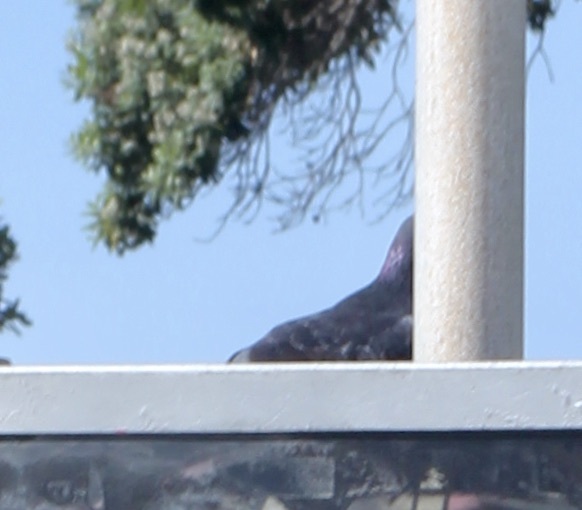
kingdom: Animalia
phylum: Chordata
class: Aves
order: Columbiformes
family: Columbidae
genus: Columba
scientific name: Columba livia
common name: Rock pigeon
